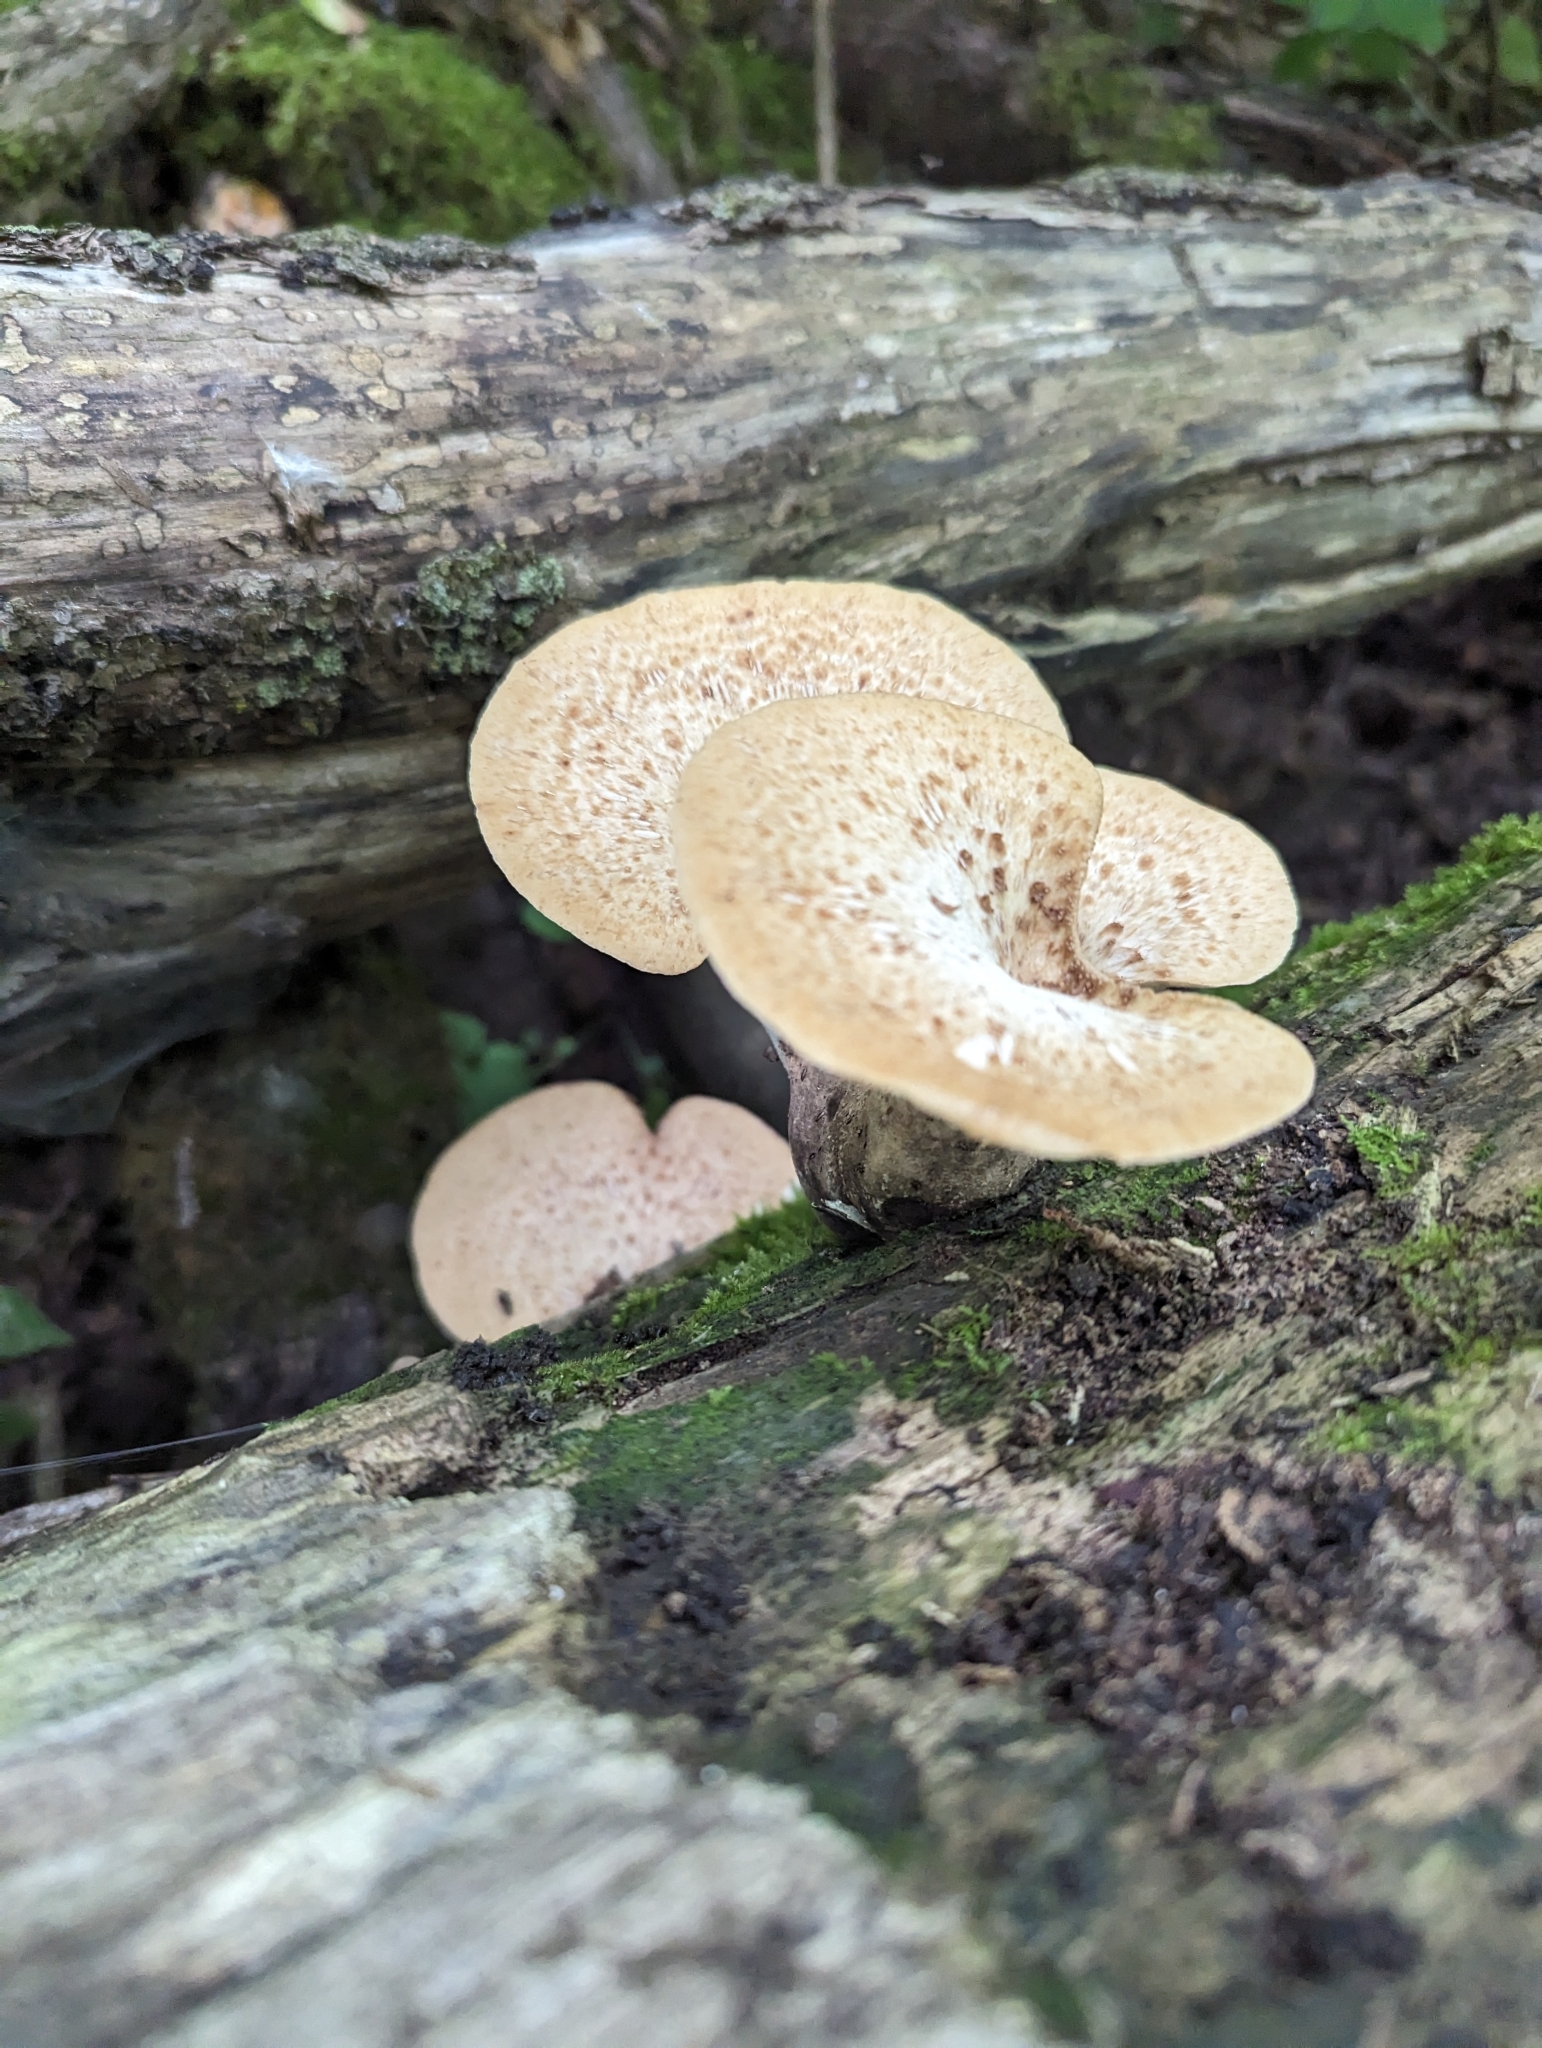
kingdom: Fungi
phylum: Basidiomycota
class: Agaricomycetes
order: Polyporales
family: Polyporaceae
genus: Cerioporus
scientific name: Cerioporus squamosus
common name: Dryad's saddle
